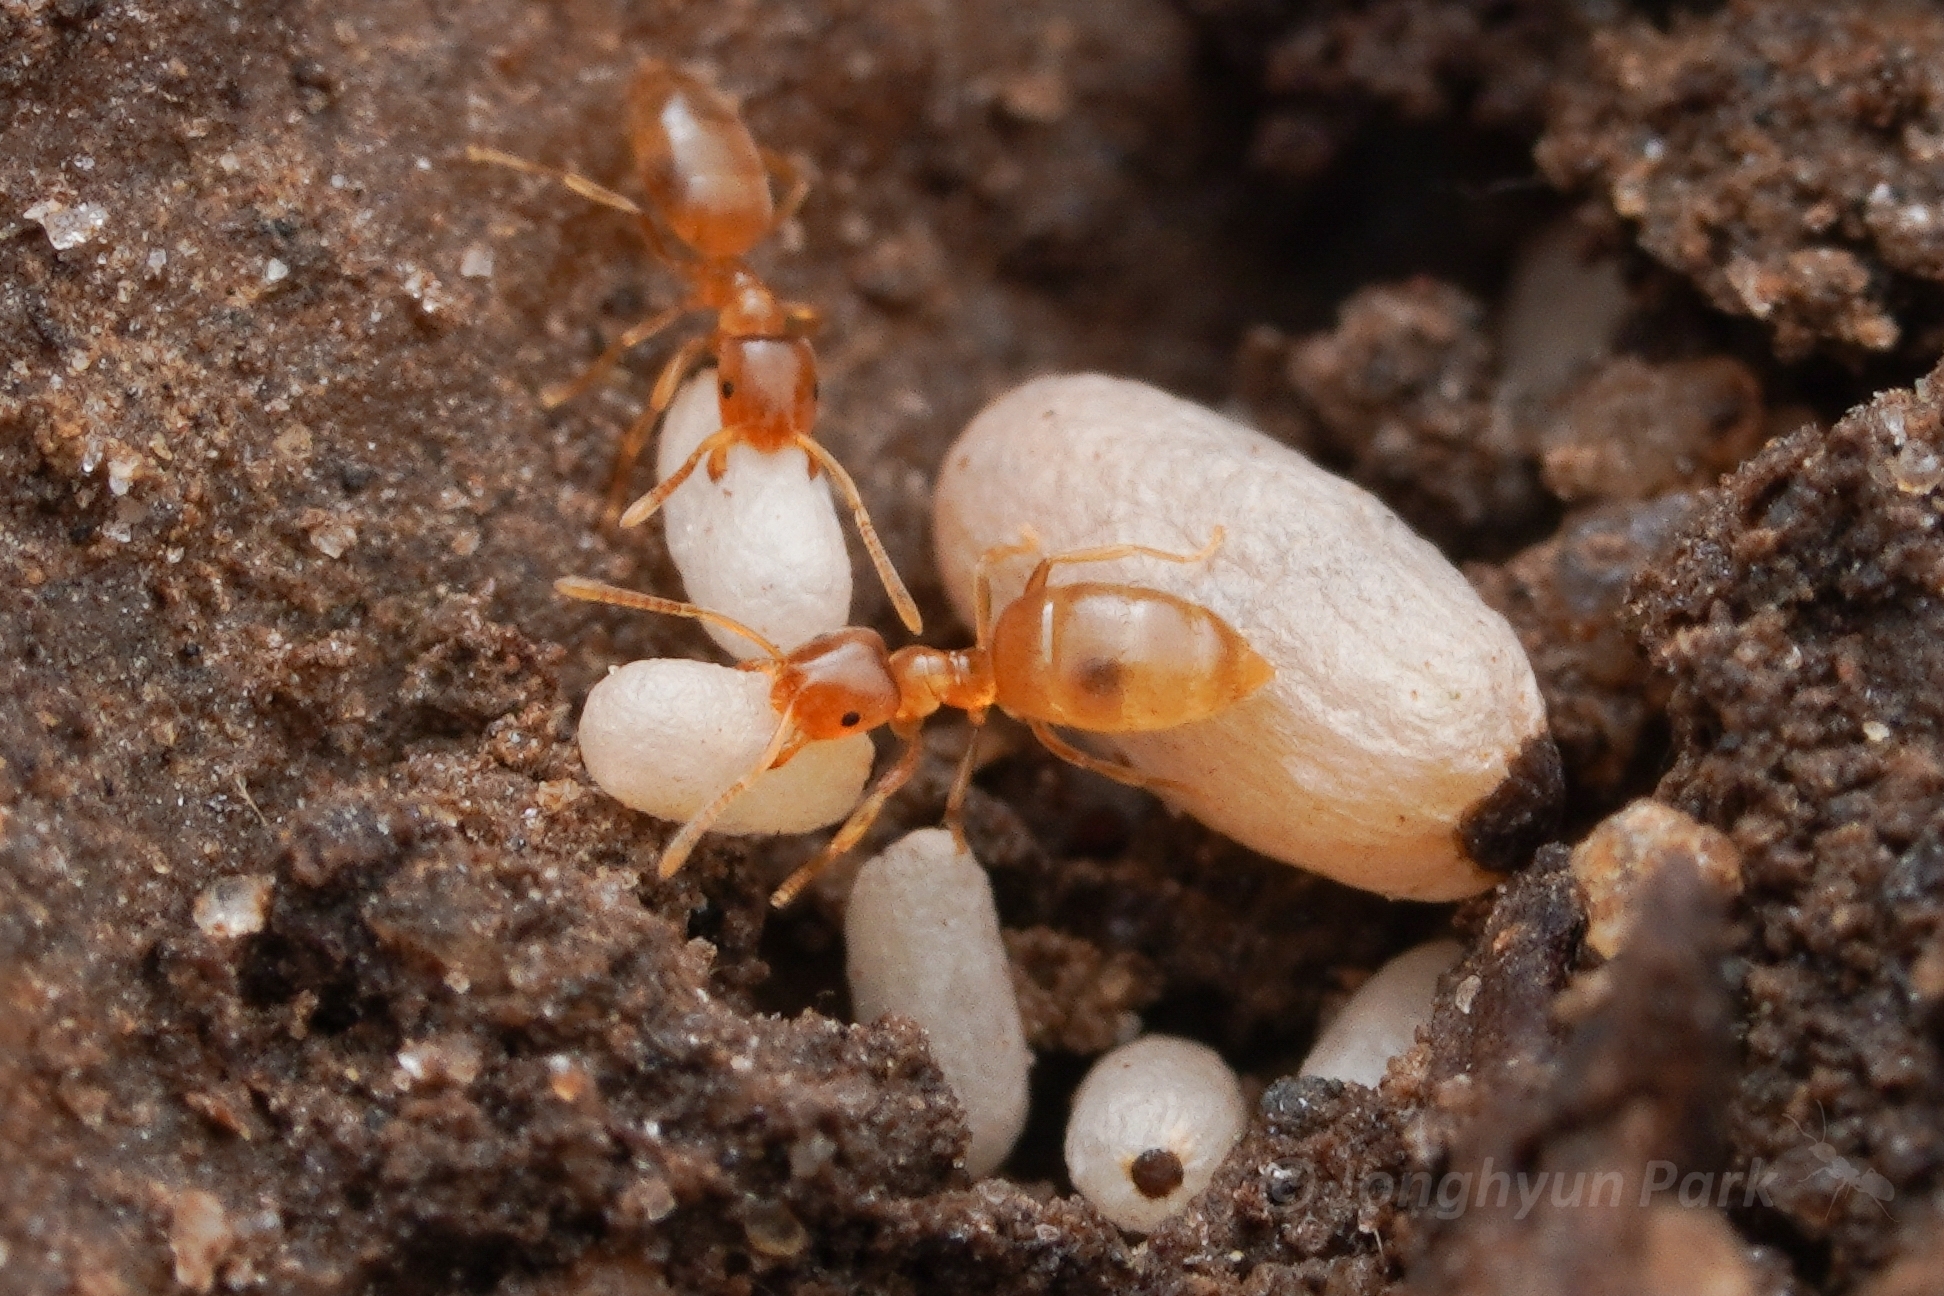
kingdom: Animalia
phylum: Arthropoda
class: Insecta
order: Hymenoptera
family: Formicidae
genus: Brachymyrmex
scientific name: Brachymyrmex depilis
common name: Hairless rover ant
